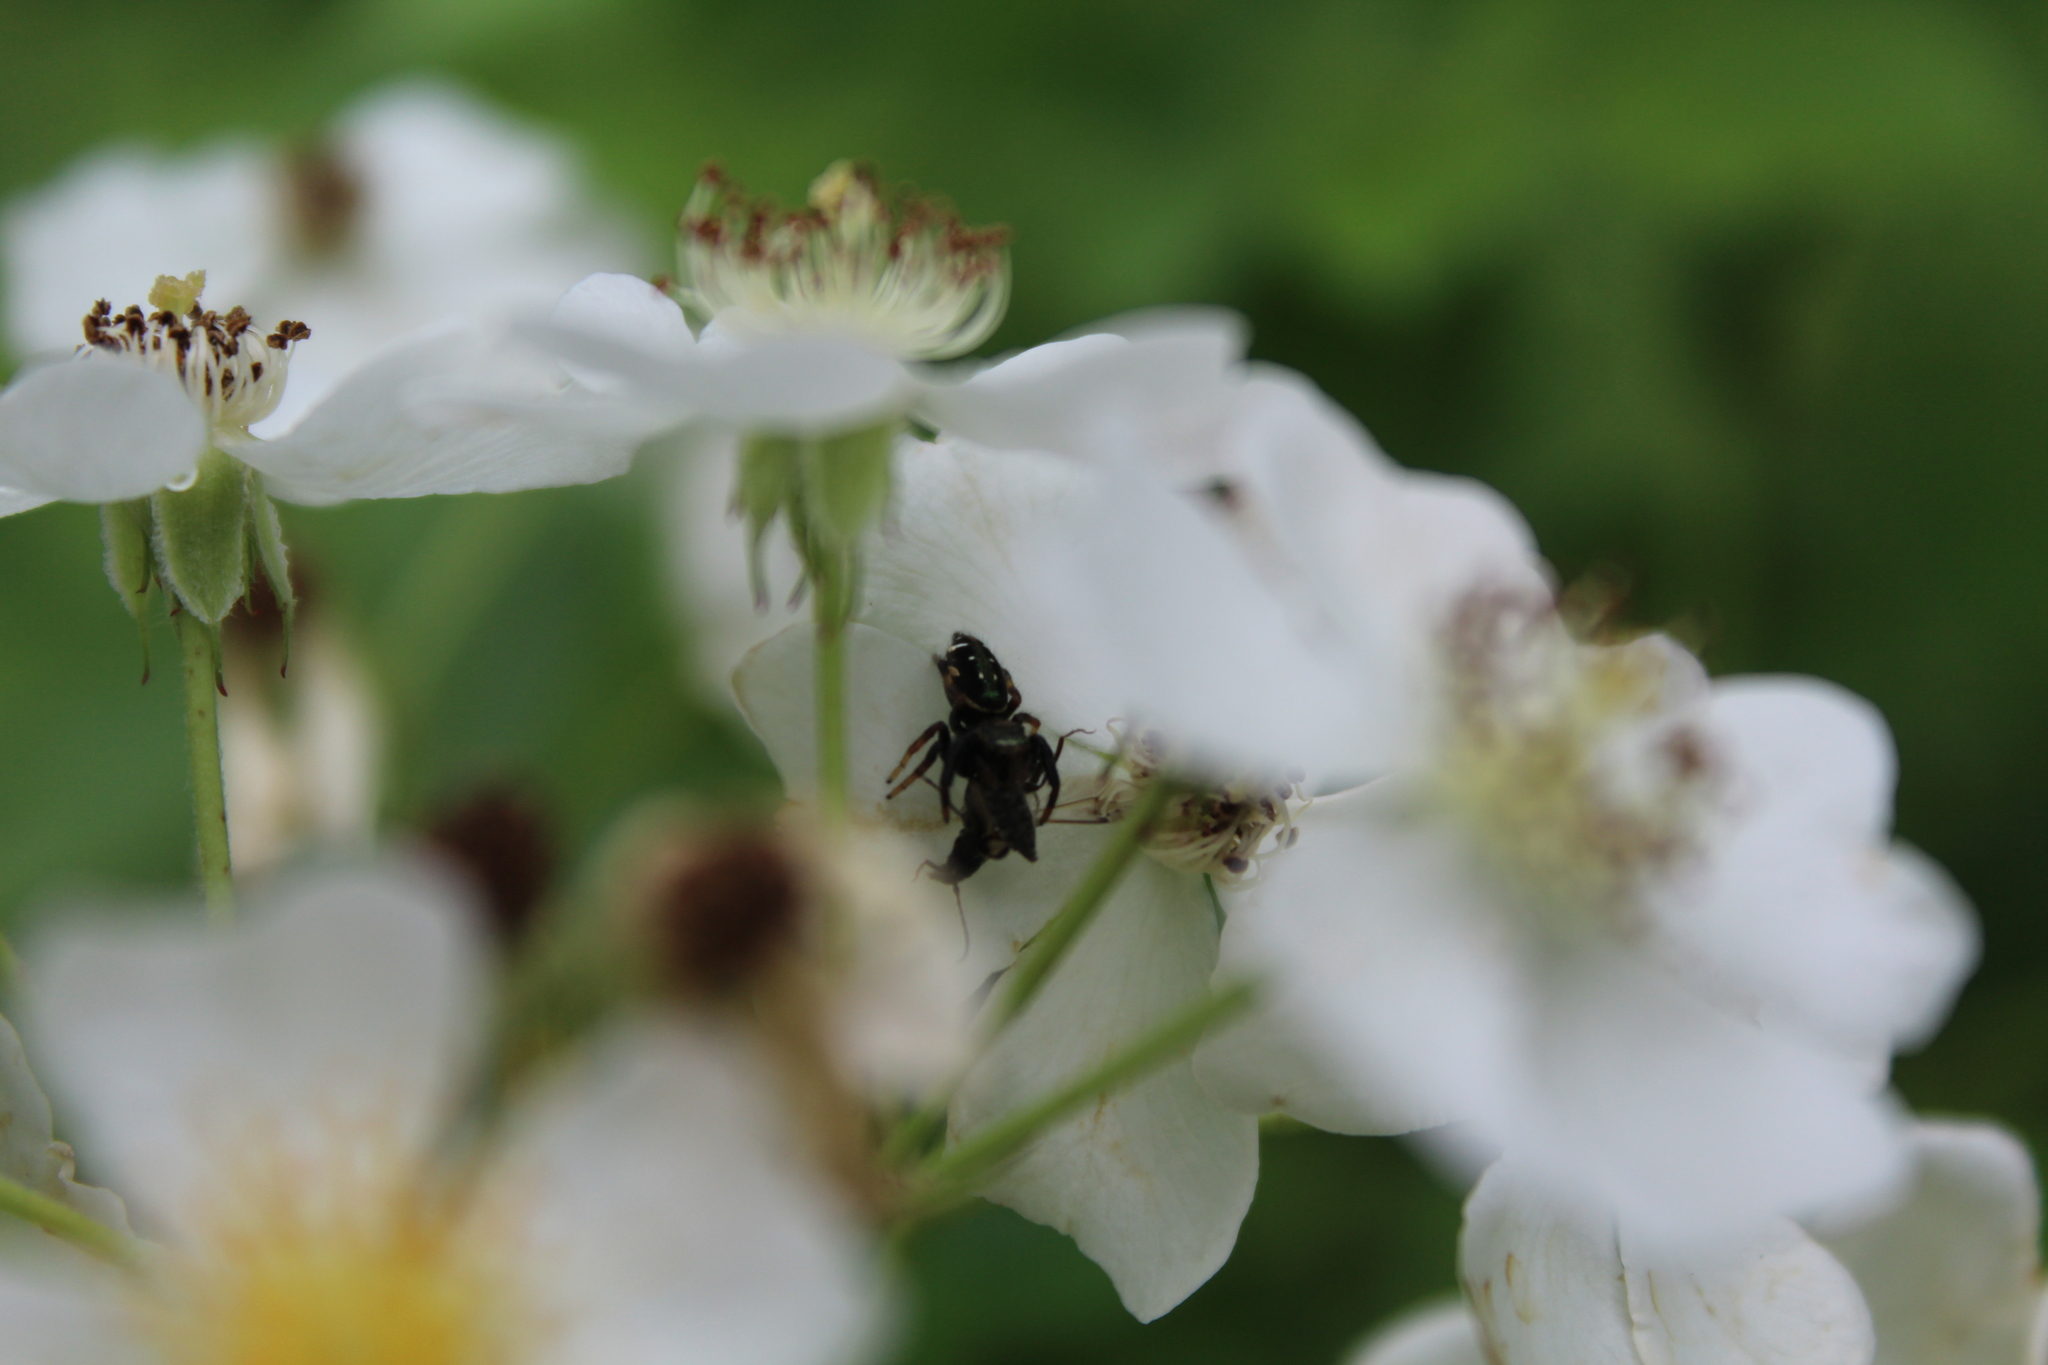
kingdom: Animalia
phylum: Arthropoda
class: Arachnida
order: Araneae
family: Salticidae
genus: Paraphidippus
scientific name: Paraphidippus aurantius
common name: Jumping spiders
